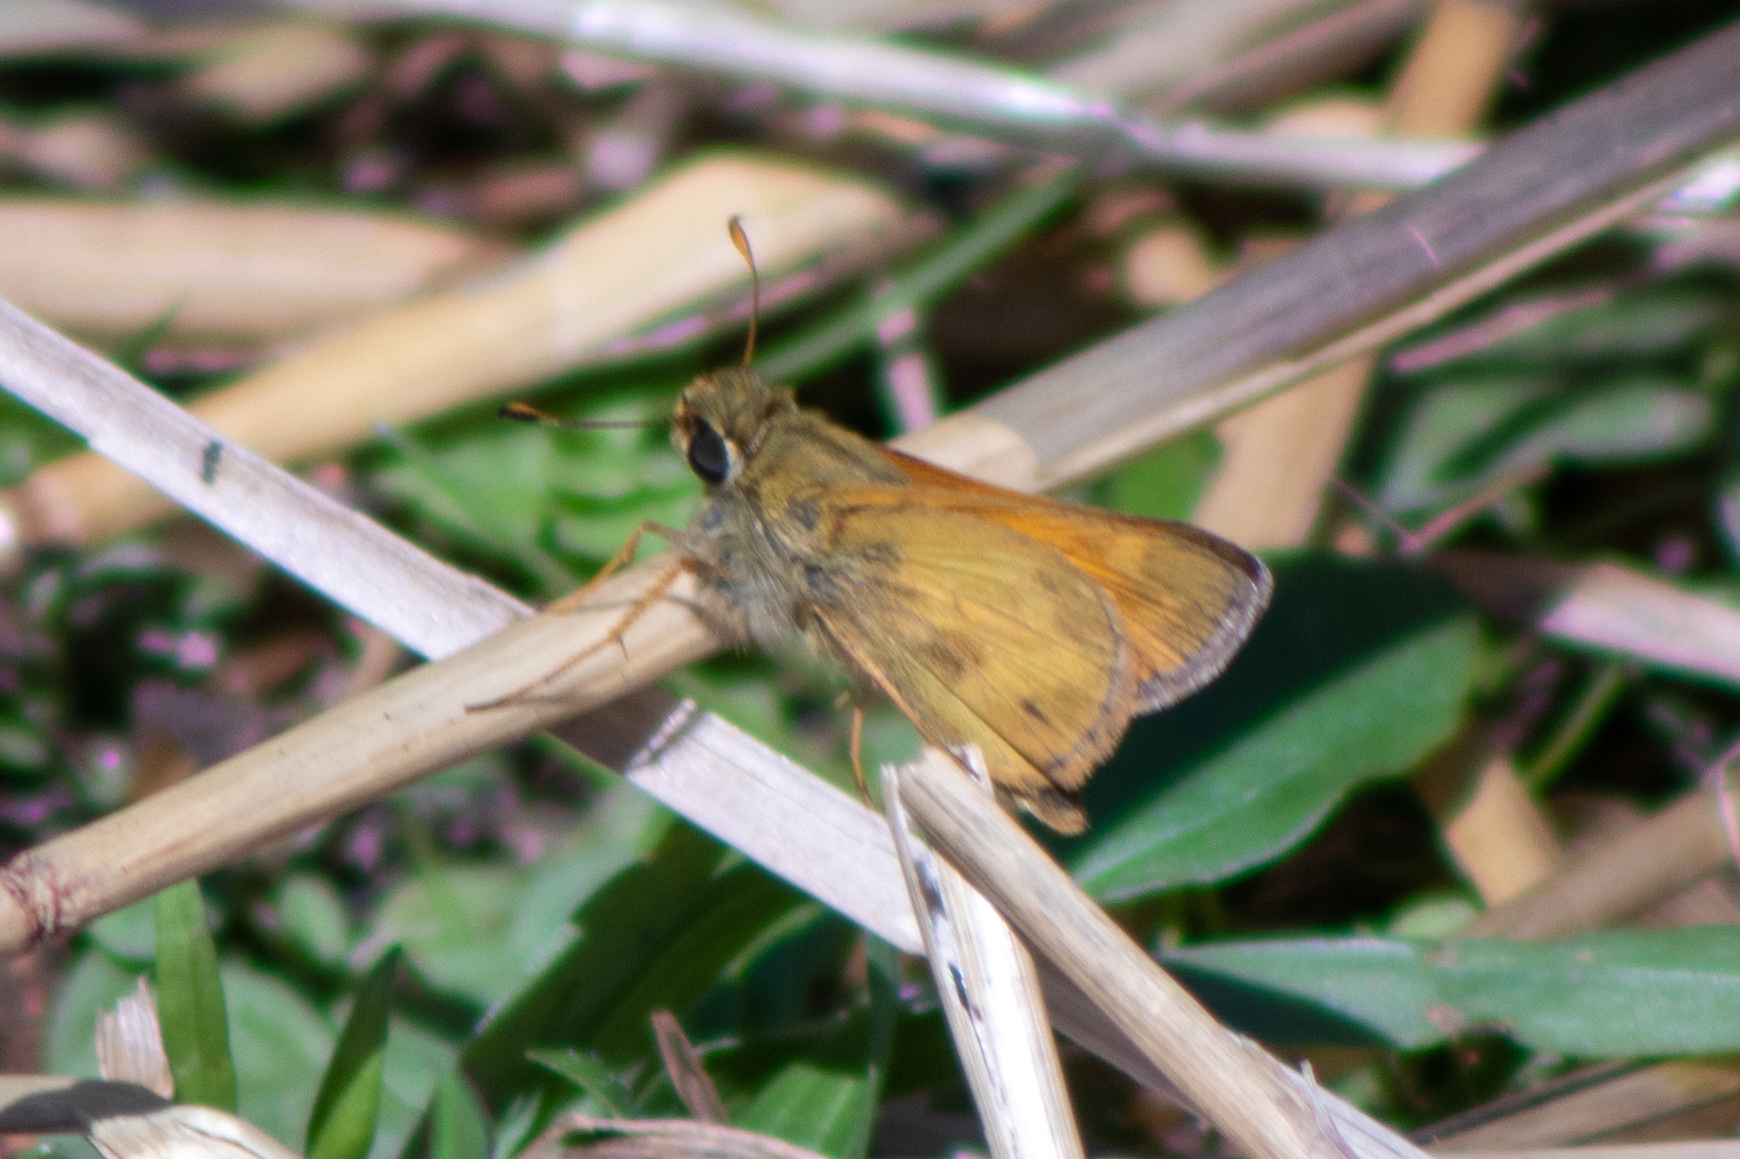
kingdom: Animalia
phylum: Arthropoda
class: Insecta
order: Lepidoptera
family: Hesperiidae
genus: Atalopedes
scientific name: Atalopedes
